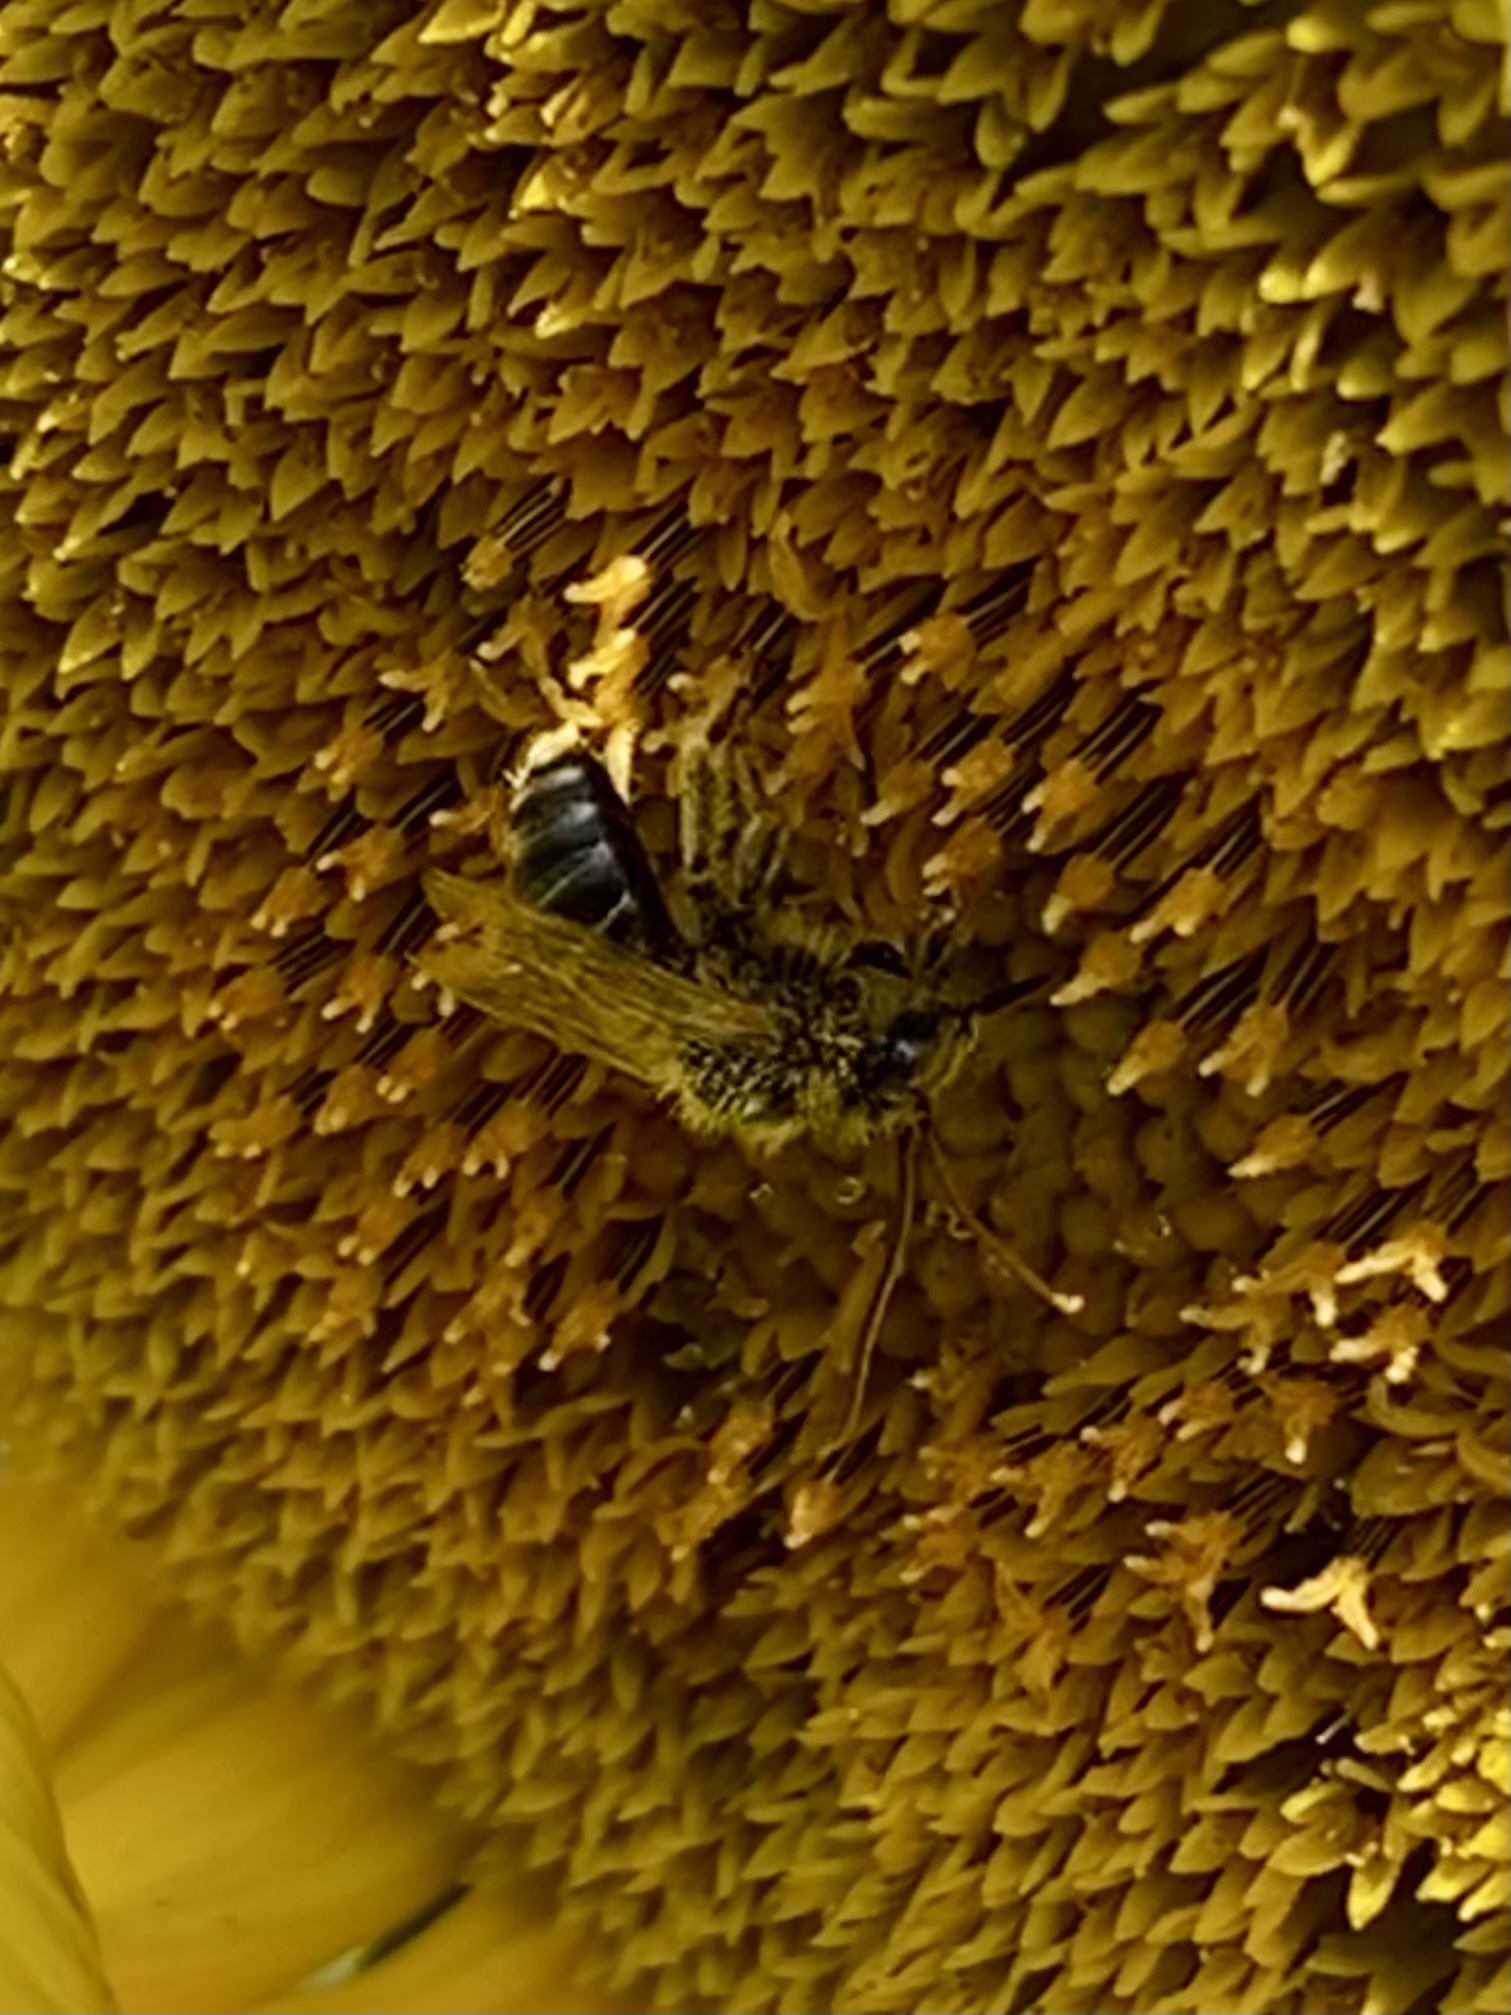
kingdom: Animalia
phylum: Arthropoda
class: Insecta
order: Hymenoptera
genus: Eumelissodes
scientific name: Eumelissodes
